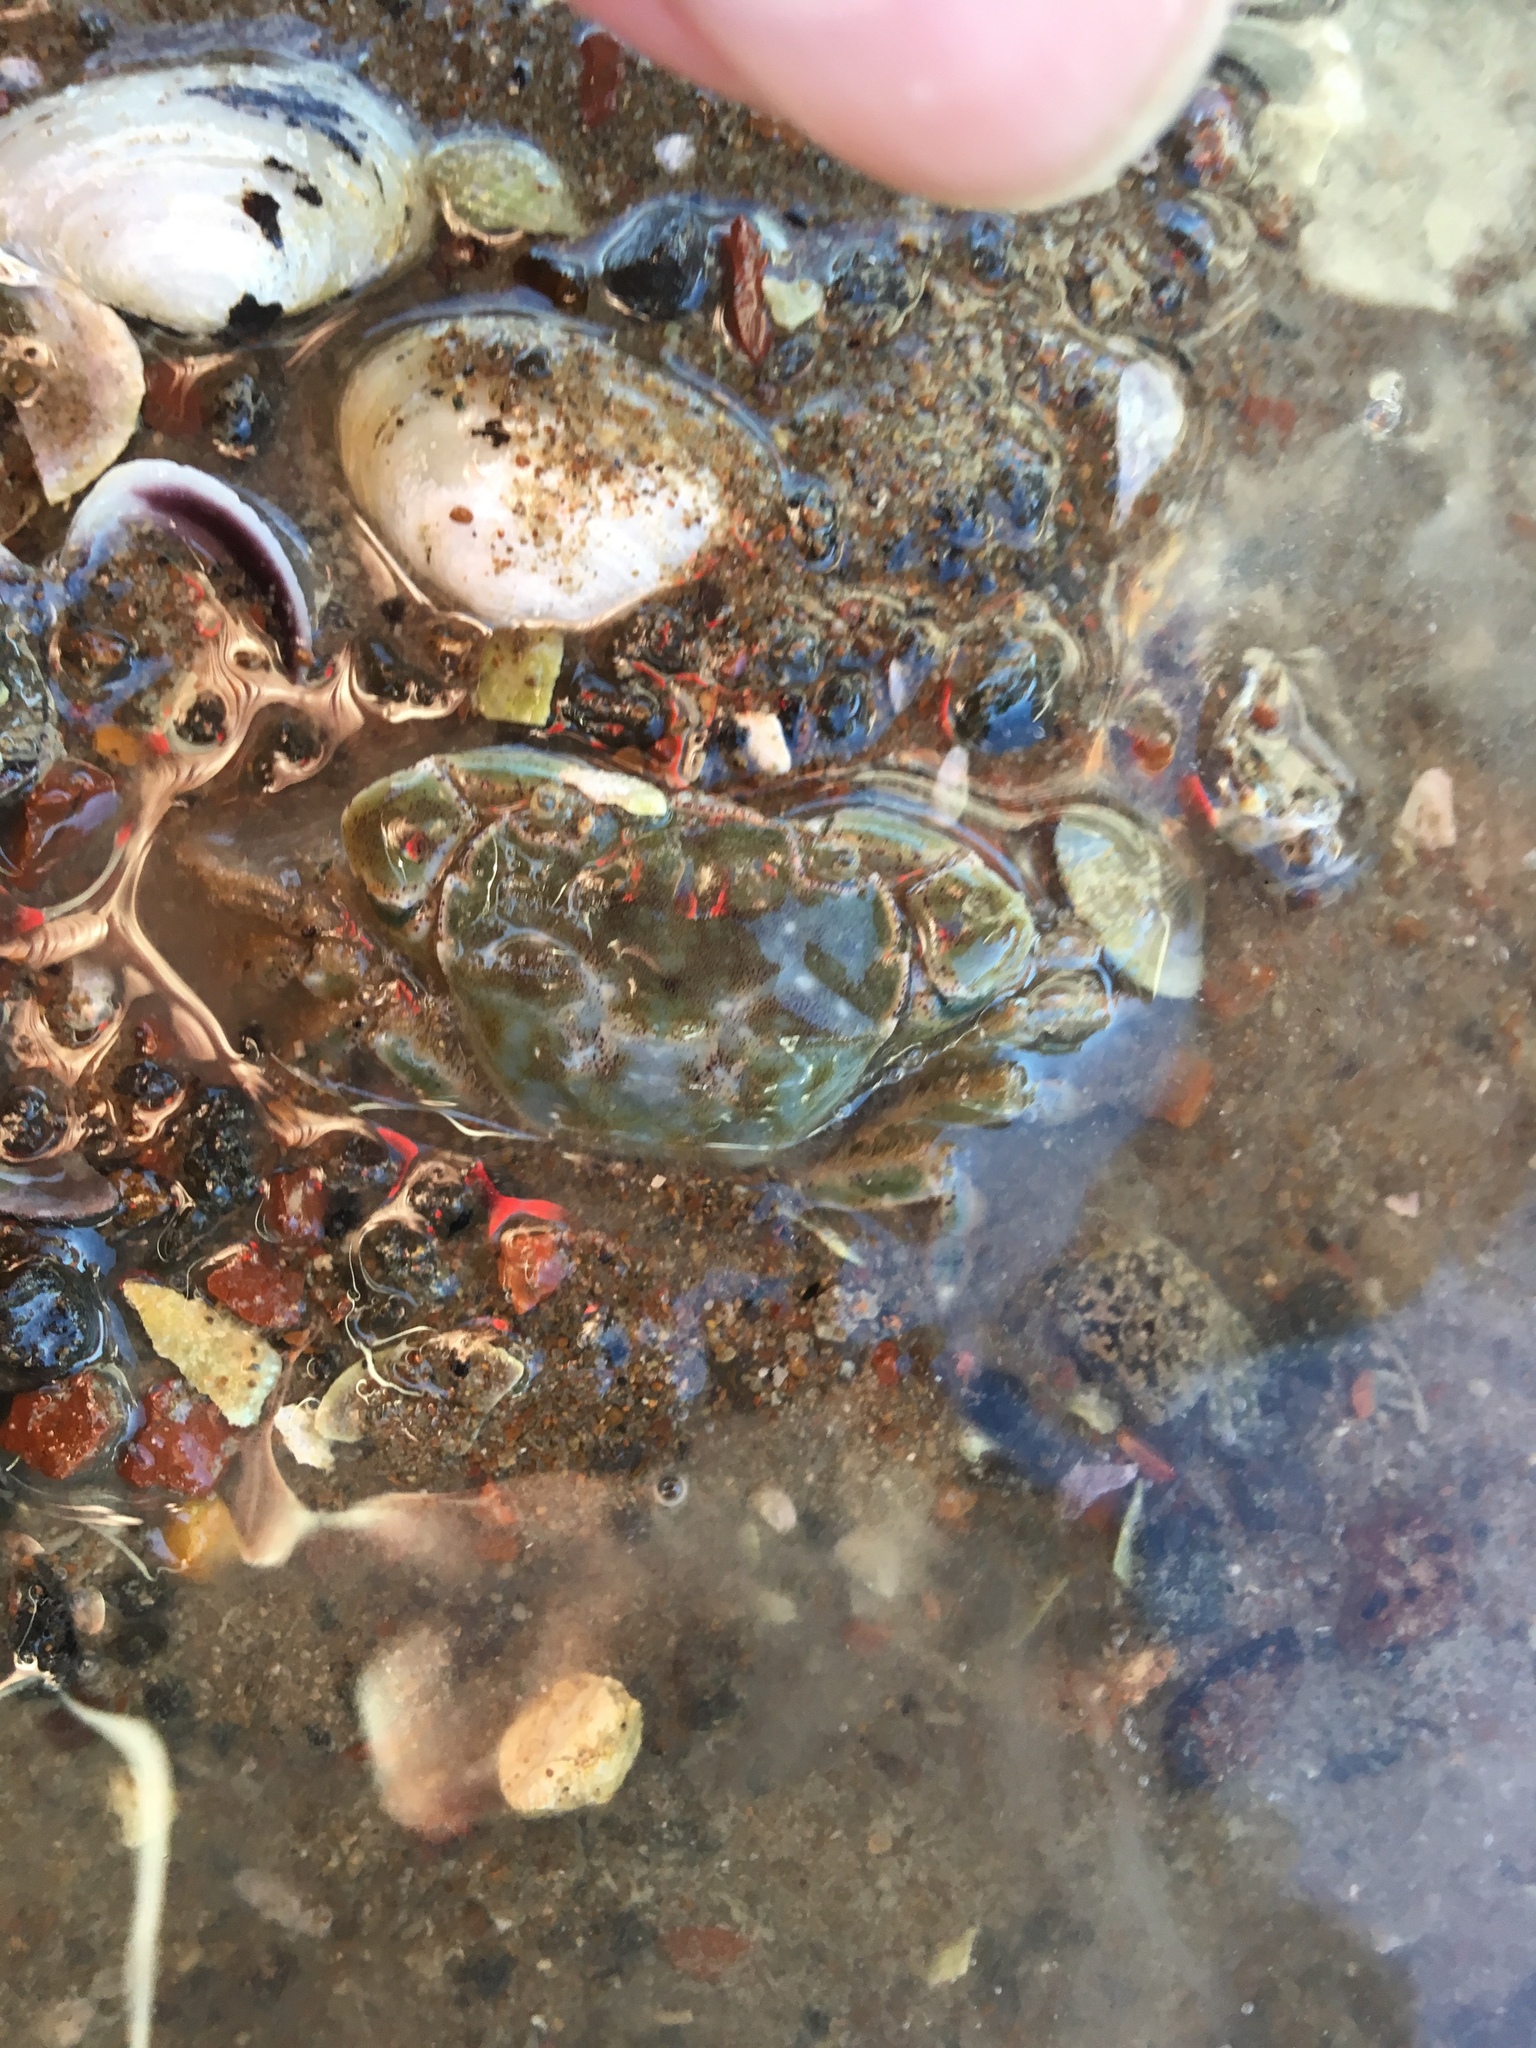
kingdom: Animalia
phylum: Arthropoda
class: Malacostraca
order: Decapoda
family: Varunidae
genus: Hemigrapsus
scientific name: Hemigrapsus crenulatus
